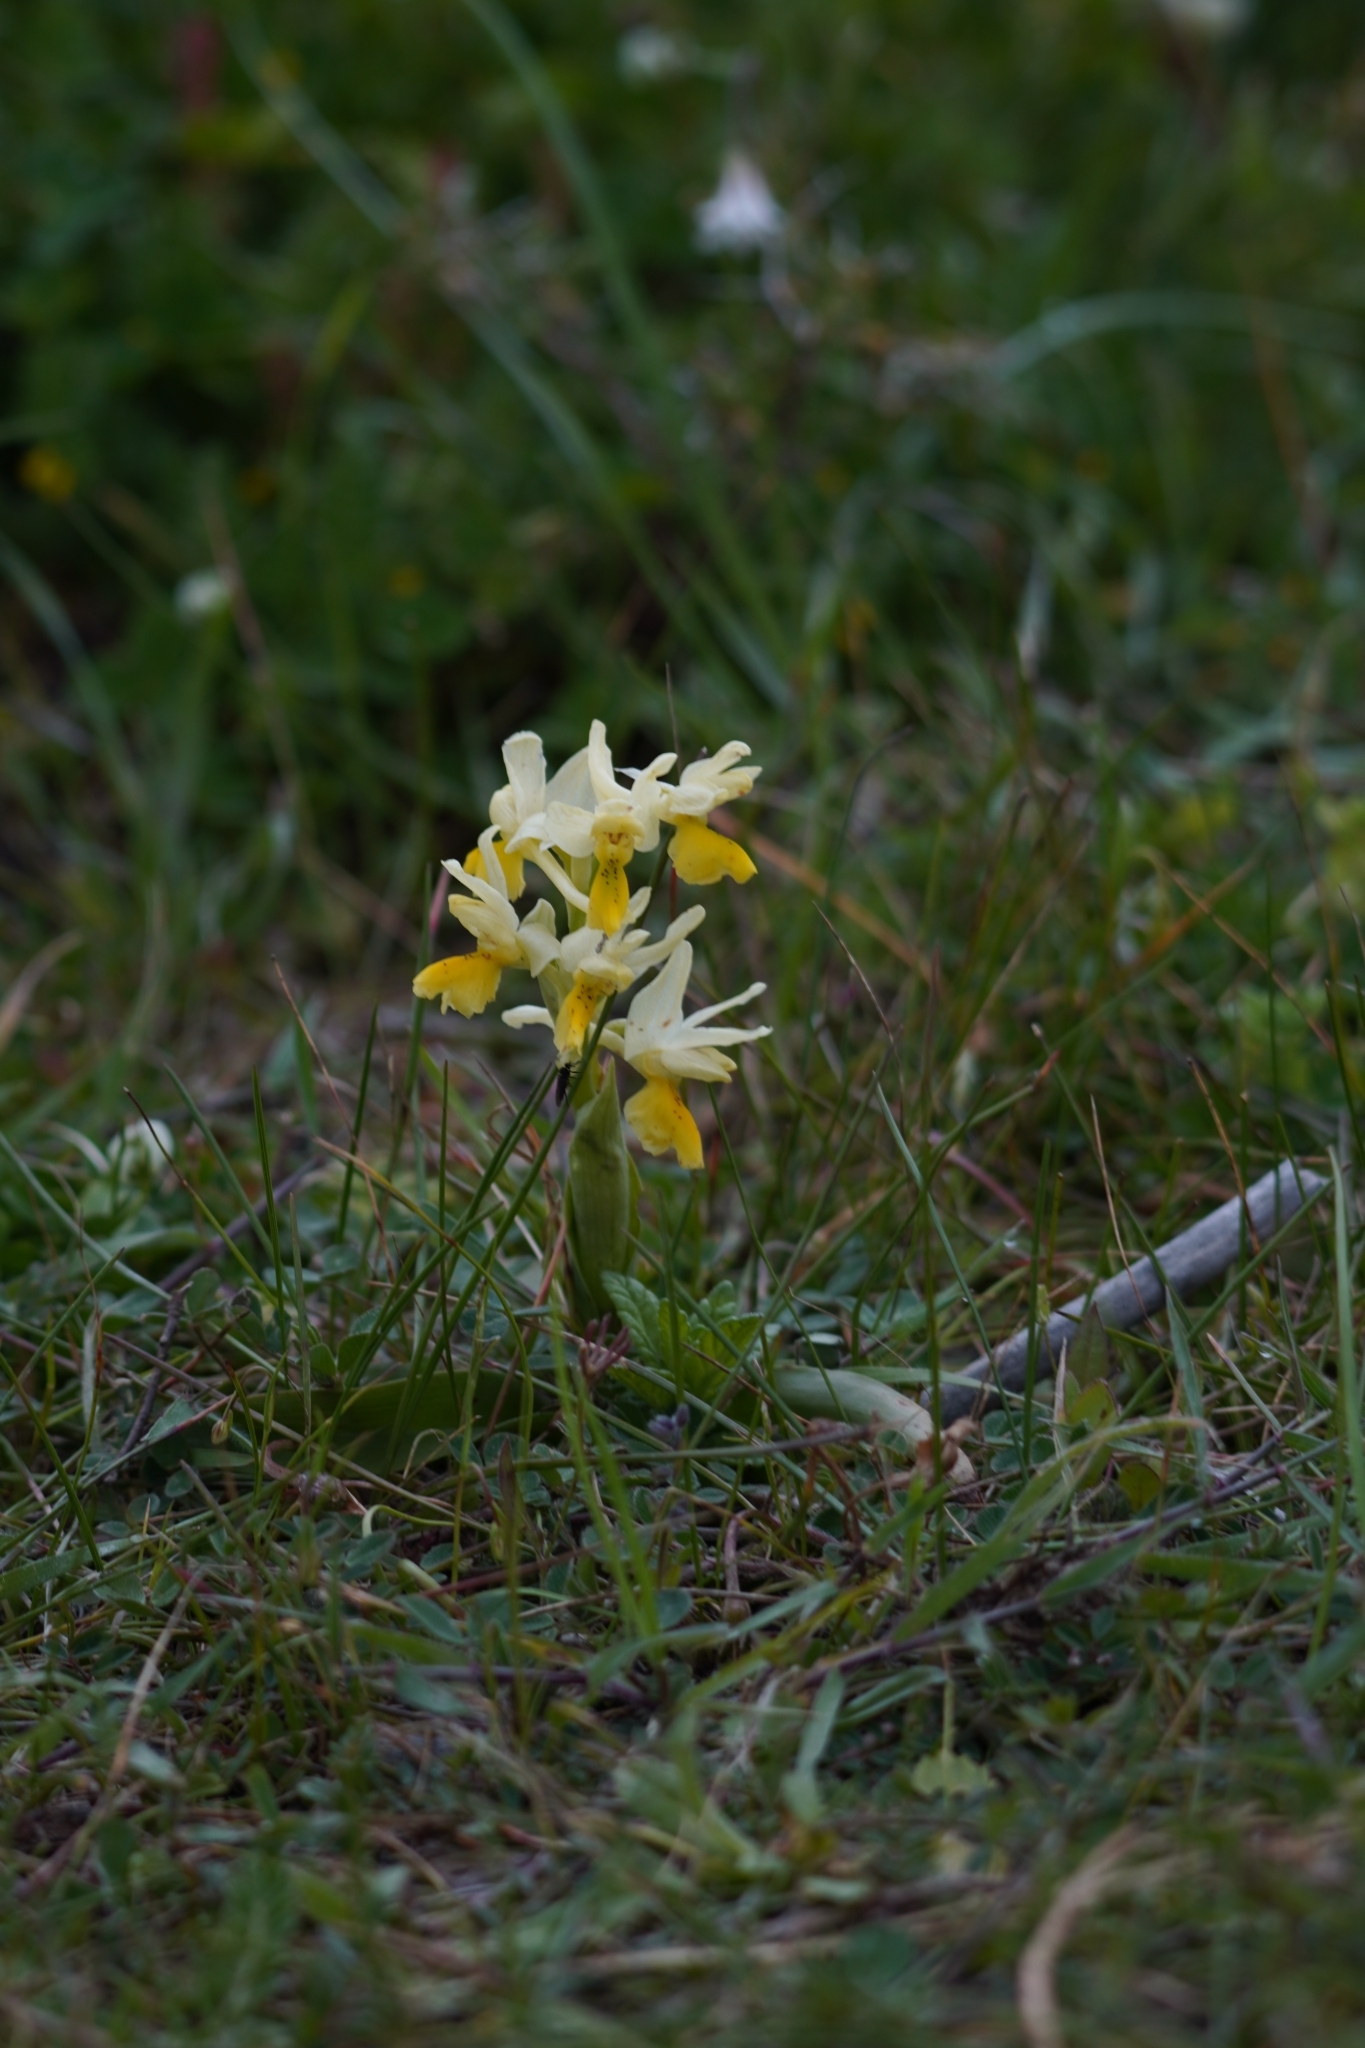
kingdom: Plantae
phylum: Tracheophyta
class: Liliopsida
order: Asparagales
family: Orchidaceae
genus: Orchis
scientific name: Orchis pauciflora
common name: Few-flowered orchid
